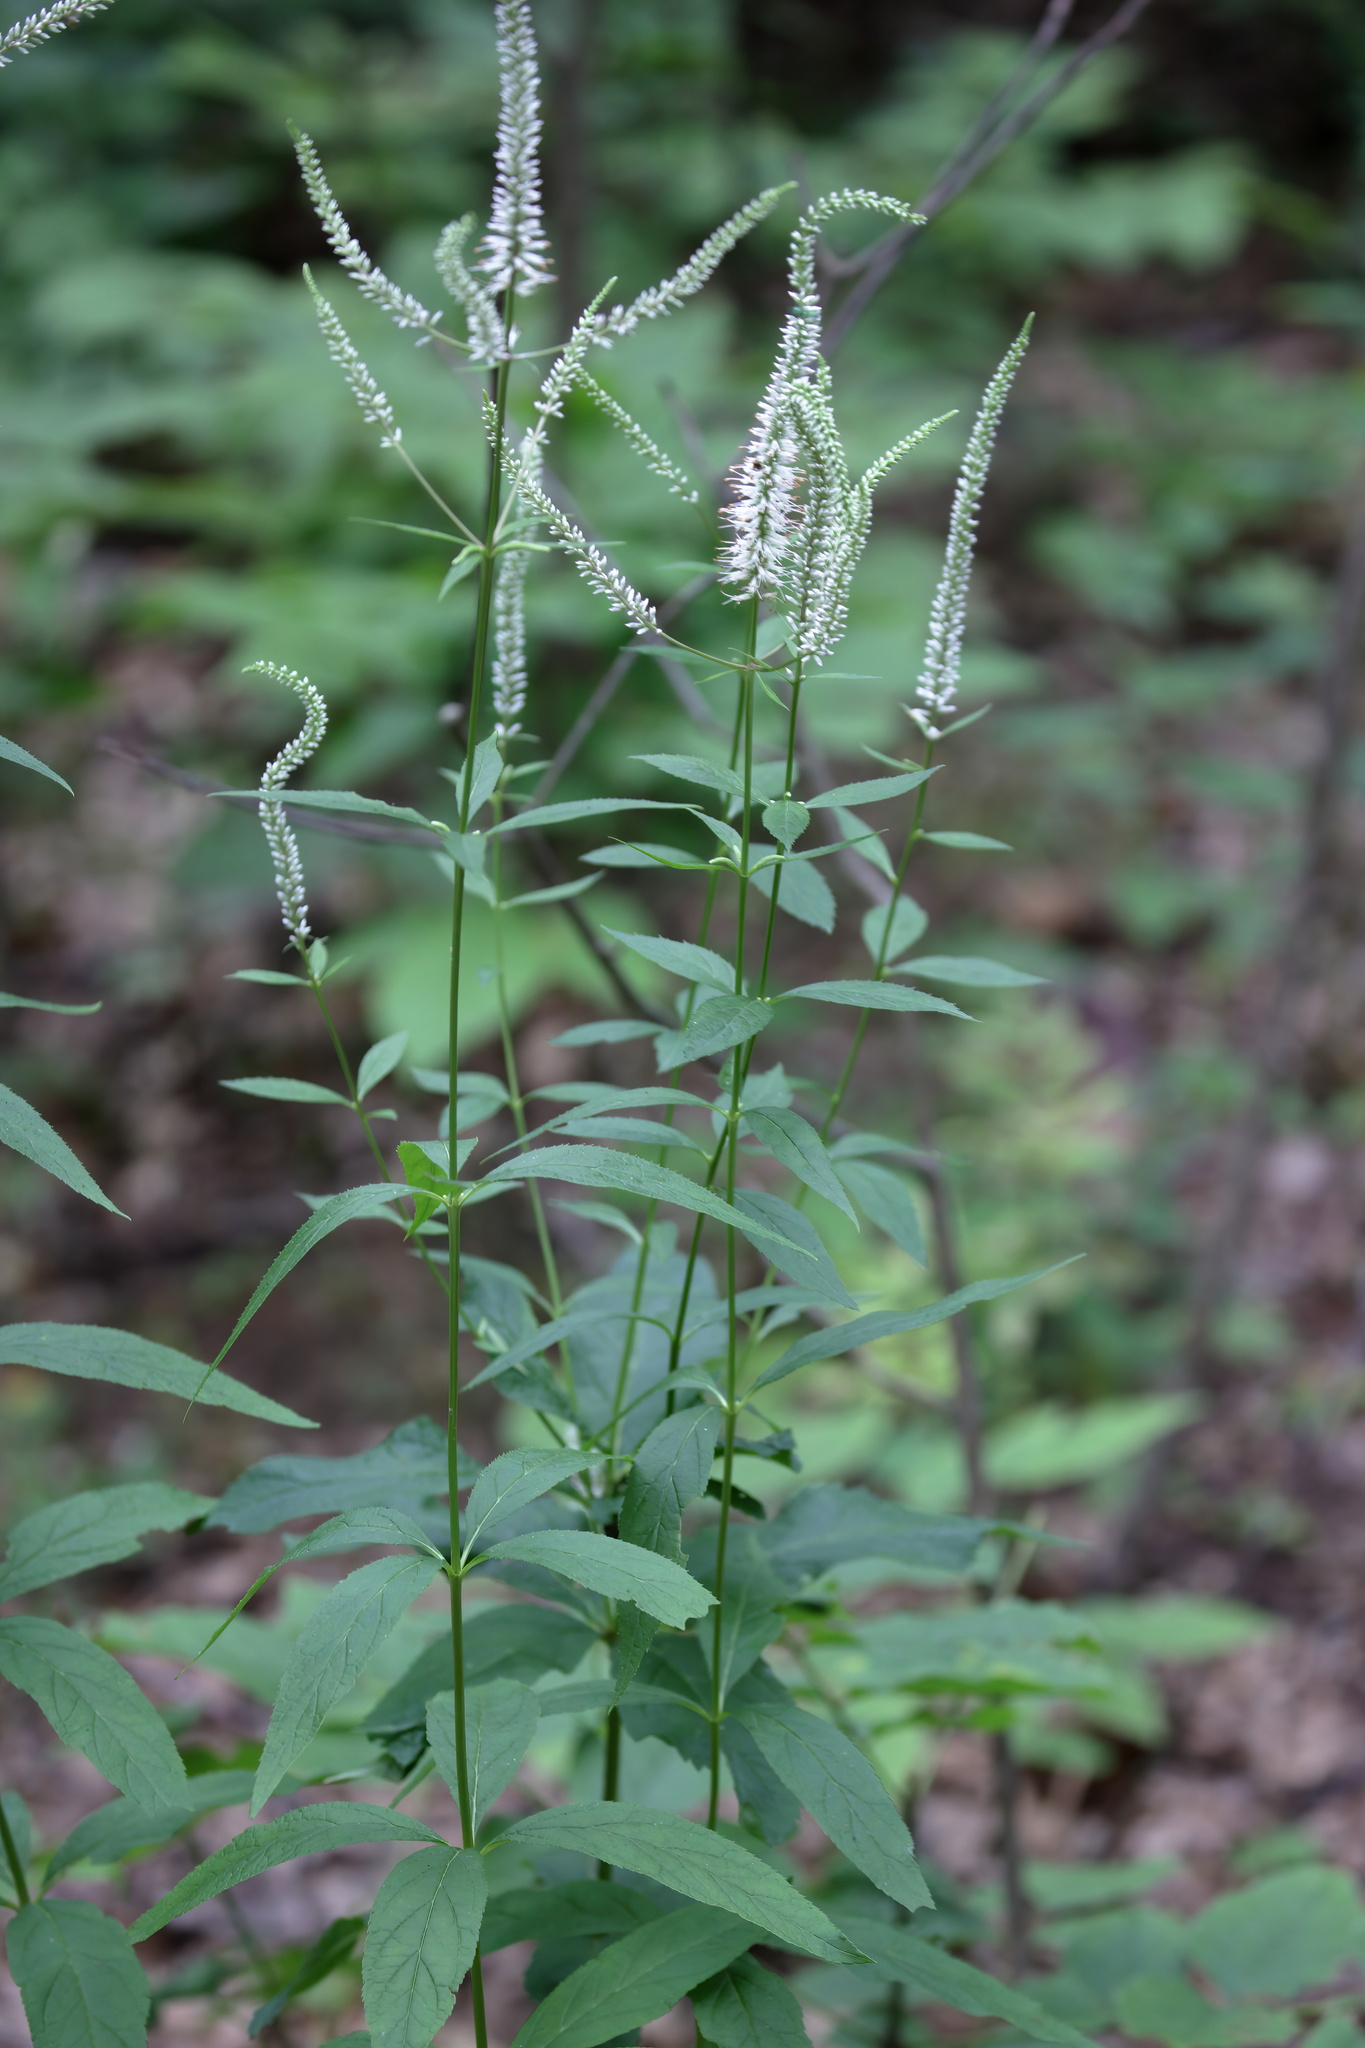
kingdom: Plantae
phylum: Tracheophyta
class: Magnoliopsida
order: Lamiales
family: Plantaginaceae
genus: Veronicastrum
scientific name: Veronicastrum virginicum
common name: Blackroot
